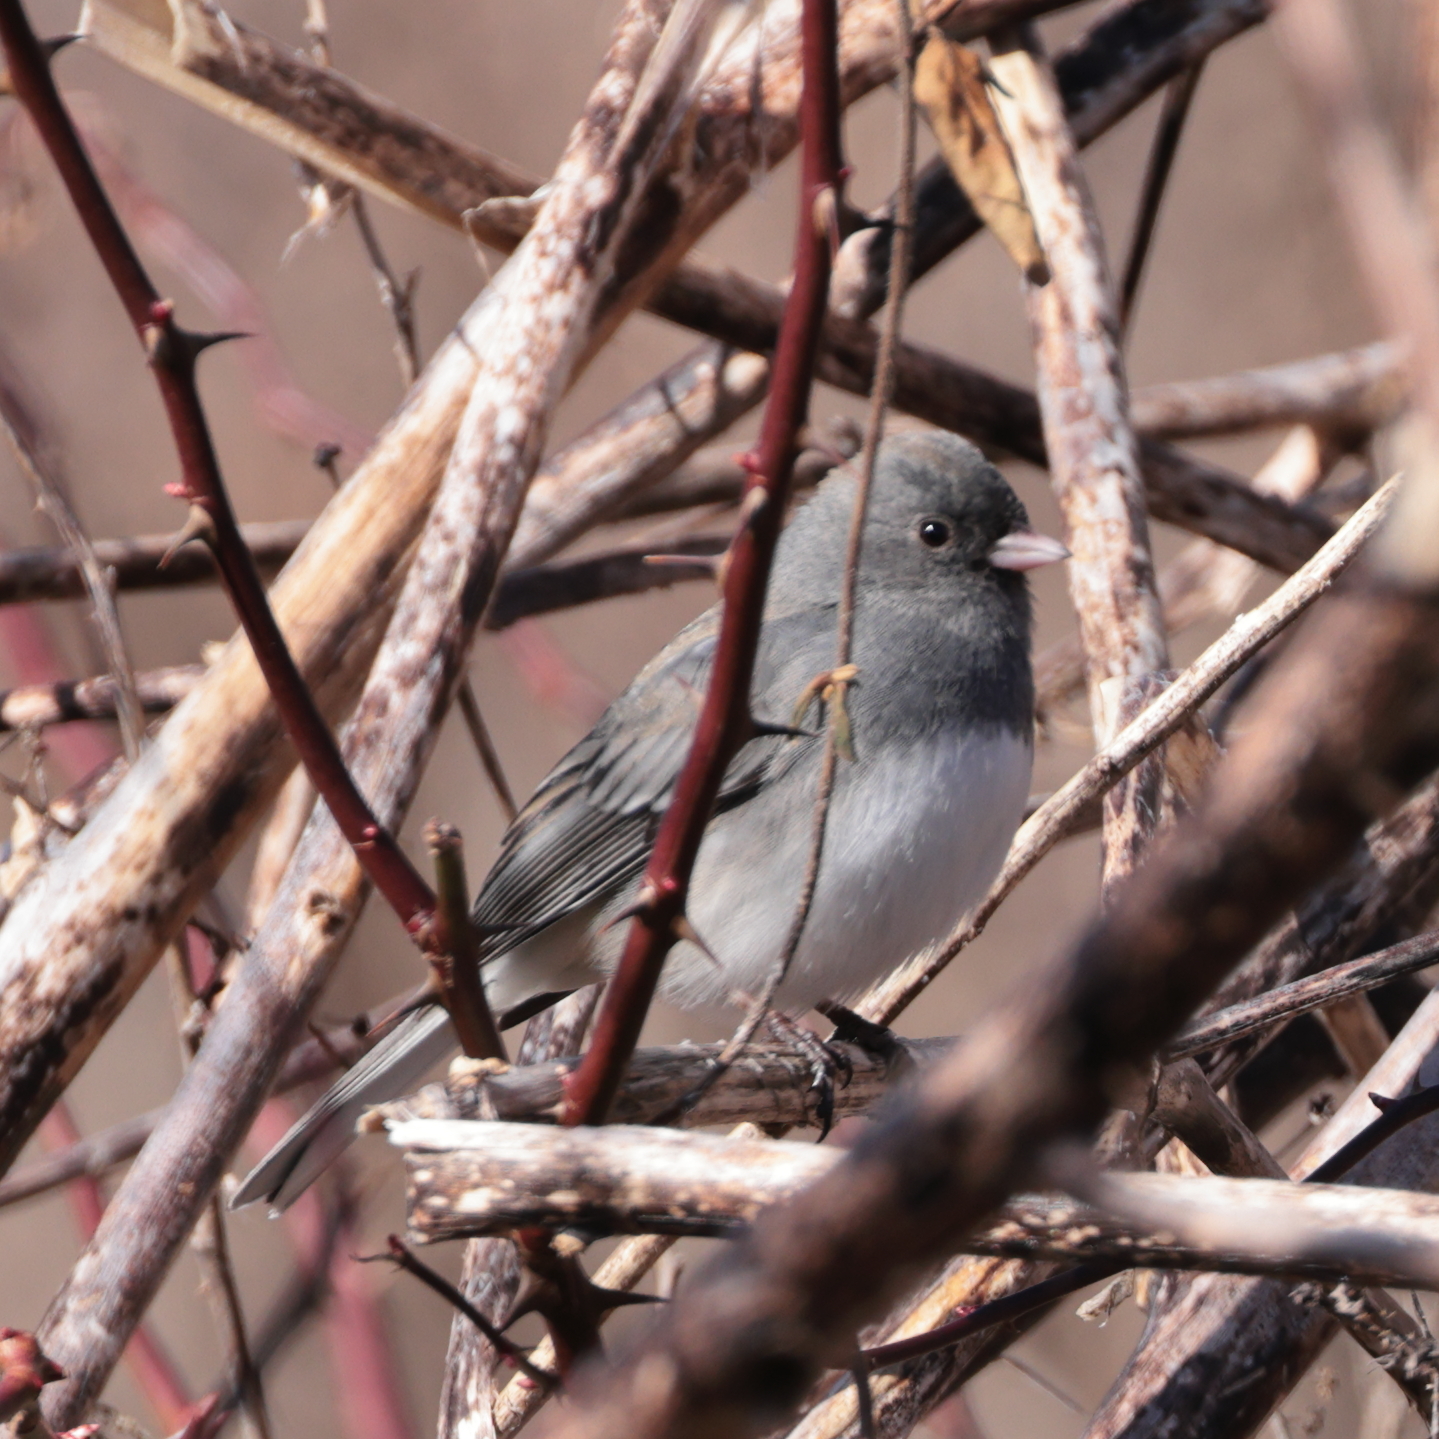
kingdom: Animalia
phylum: Chordata
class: Aves
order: Passeriformes
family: Passerellidae
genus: Junco
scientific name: Junco hyemalis
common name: Dark-eyed junco
